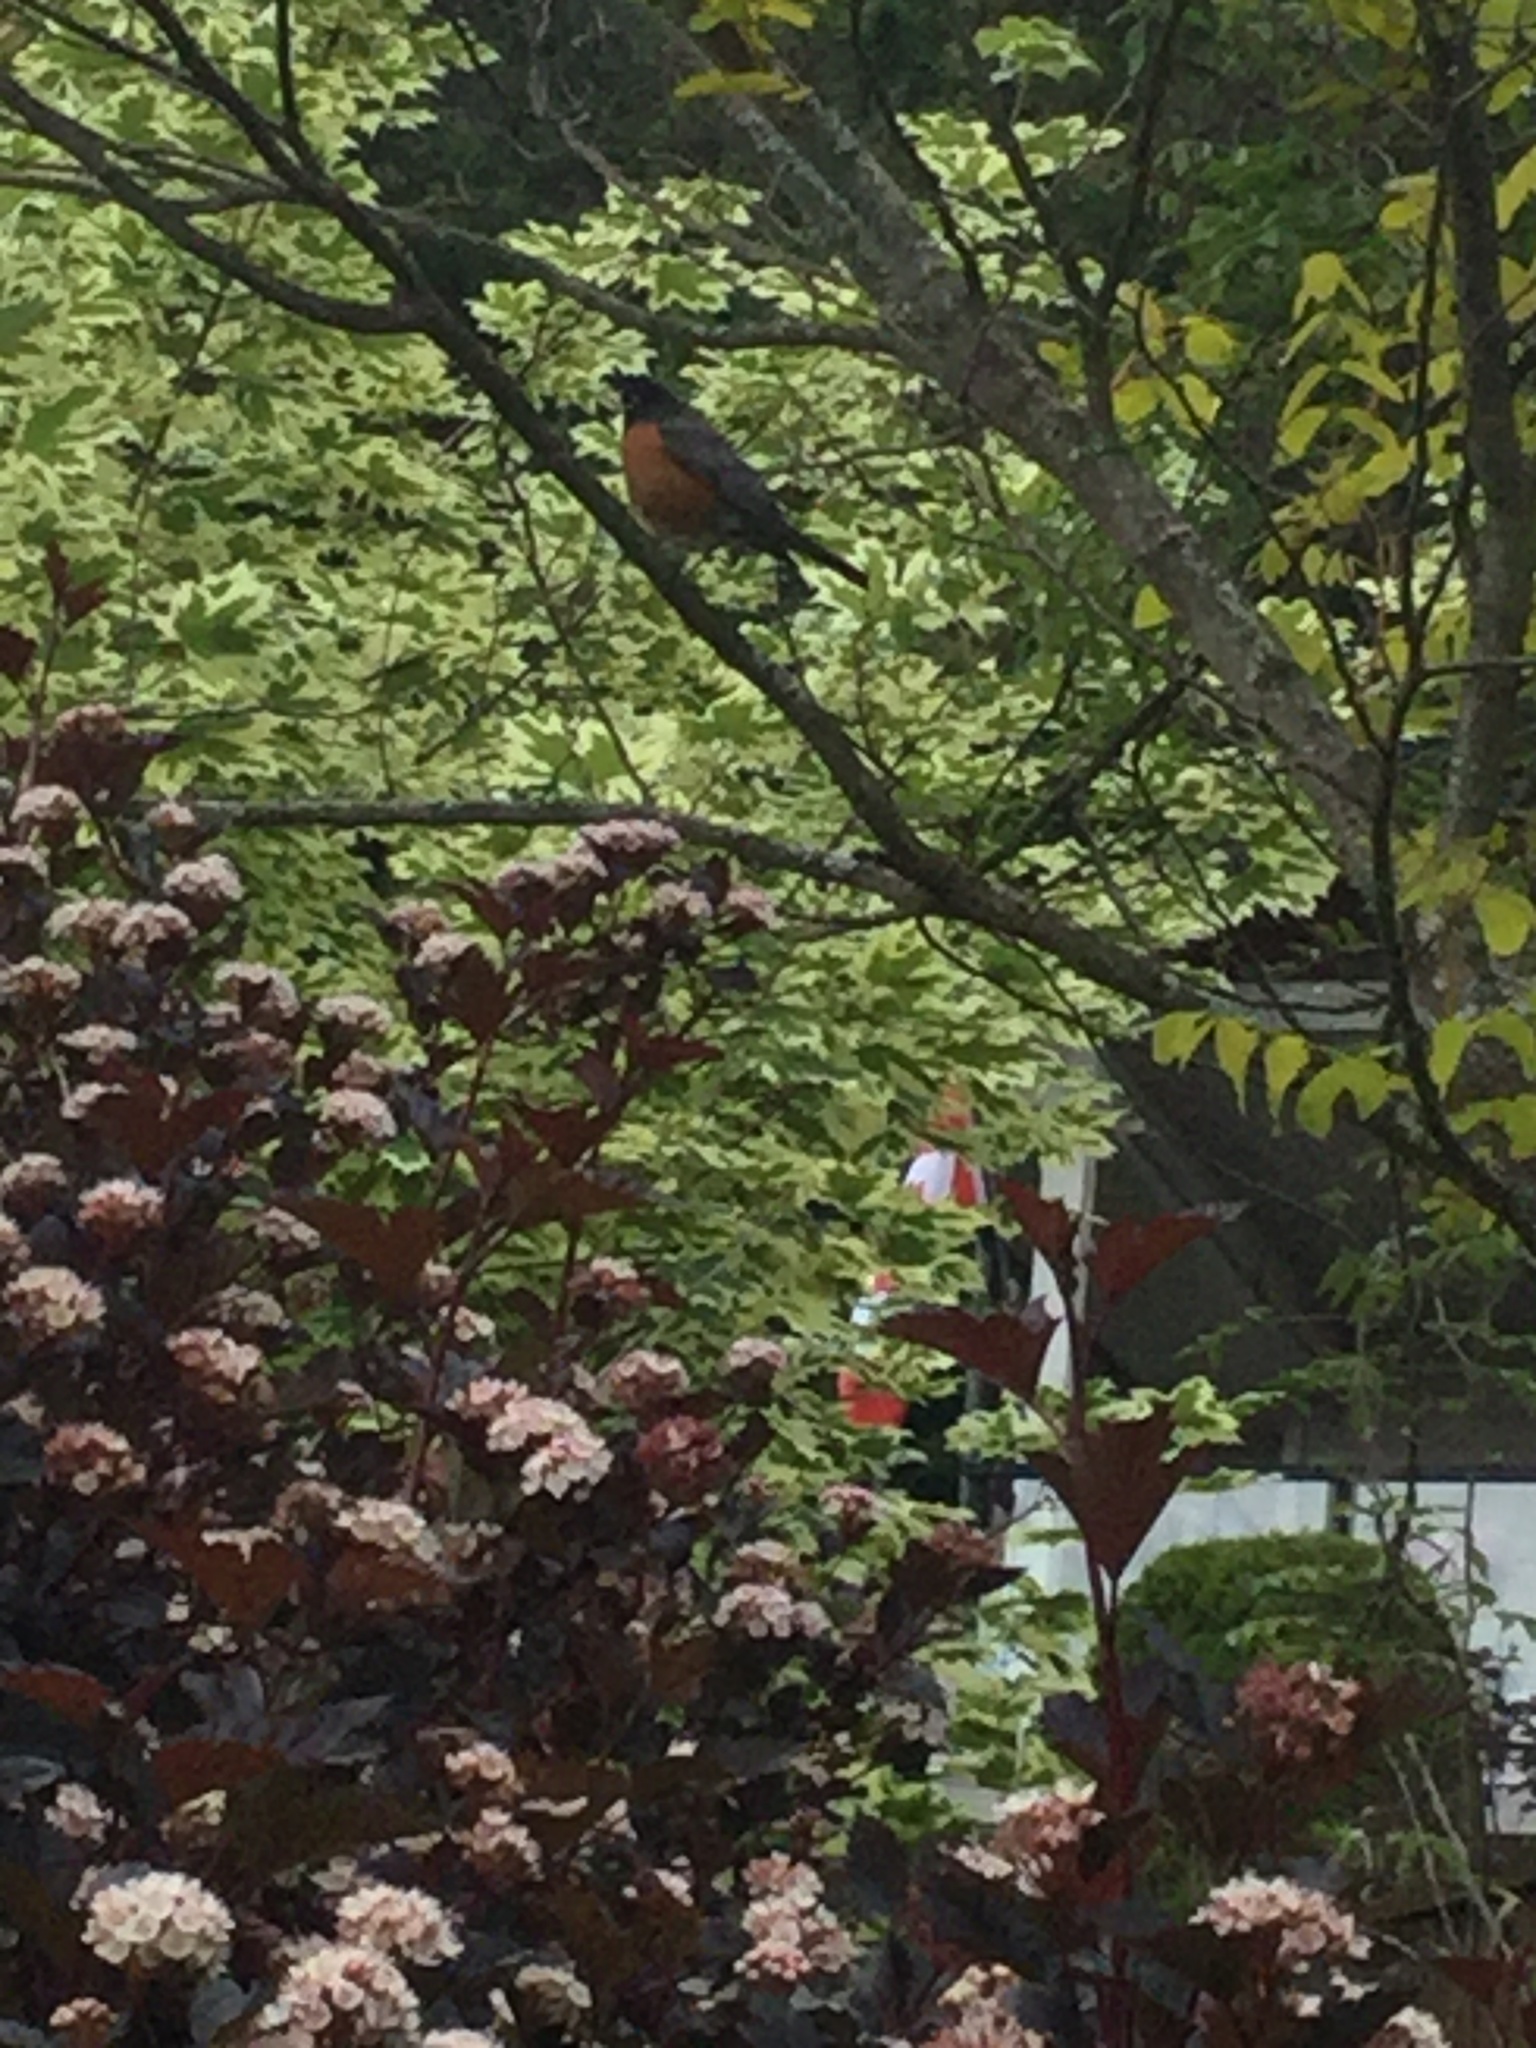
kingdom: Animalia
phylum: Chordata
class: Aves
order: Passeriformes
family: Turdidae
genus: Turdus
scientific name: Turdus migratorius
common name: American robin
